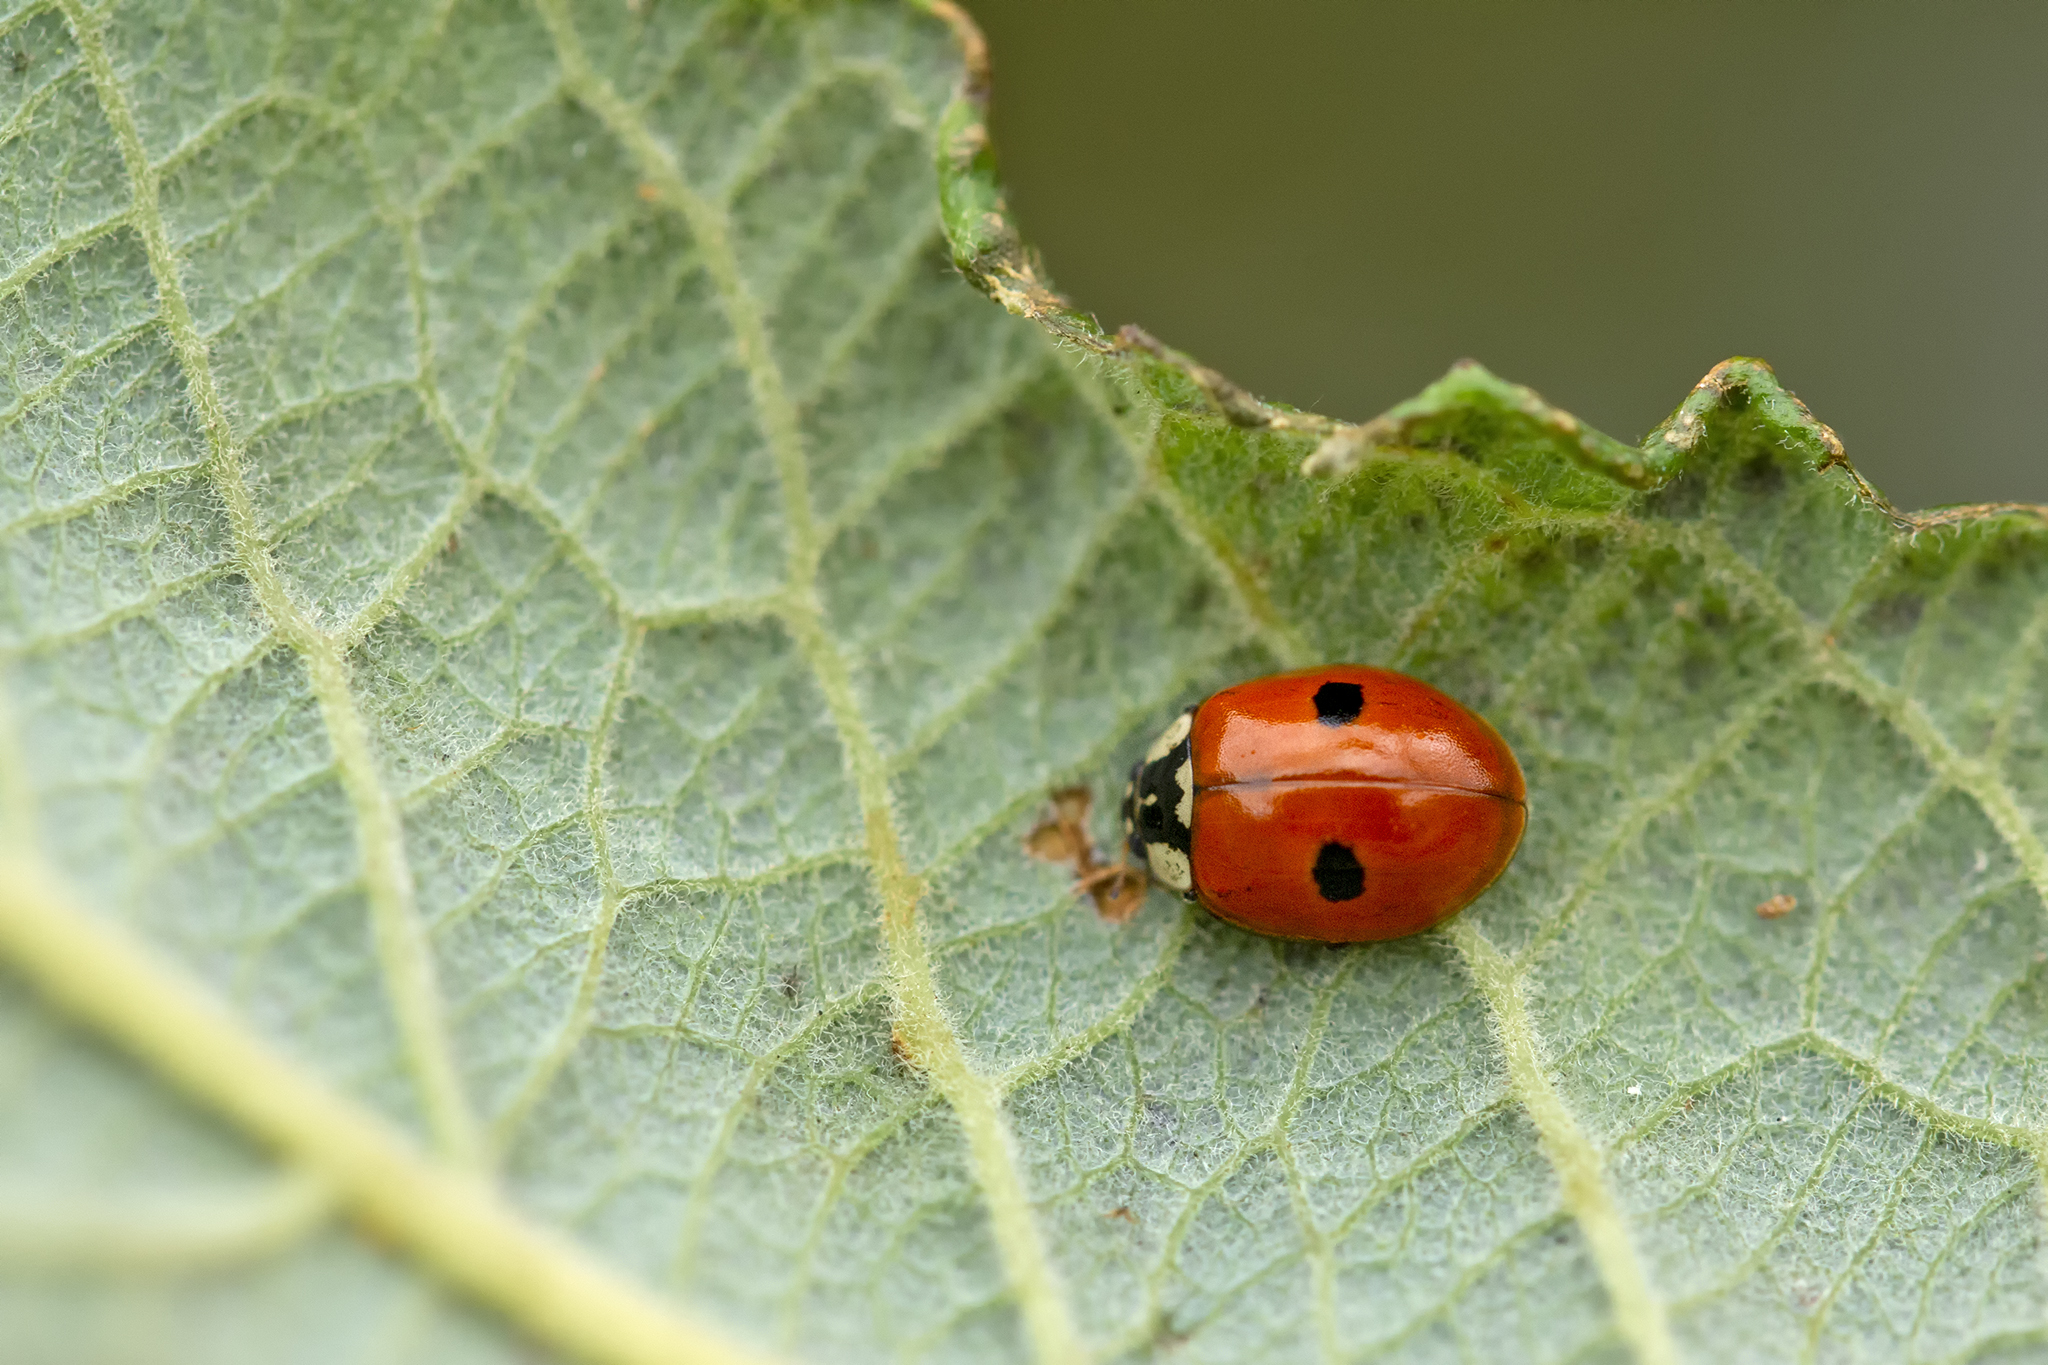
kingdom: Animalia
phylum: Arthropoda
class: Insecta
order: Coleoptera
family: Coccinellidae
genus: Adalia
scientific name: Adalia bipunctata
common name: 2-spot ladybird
